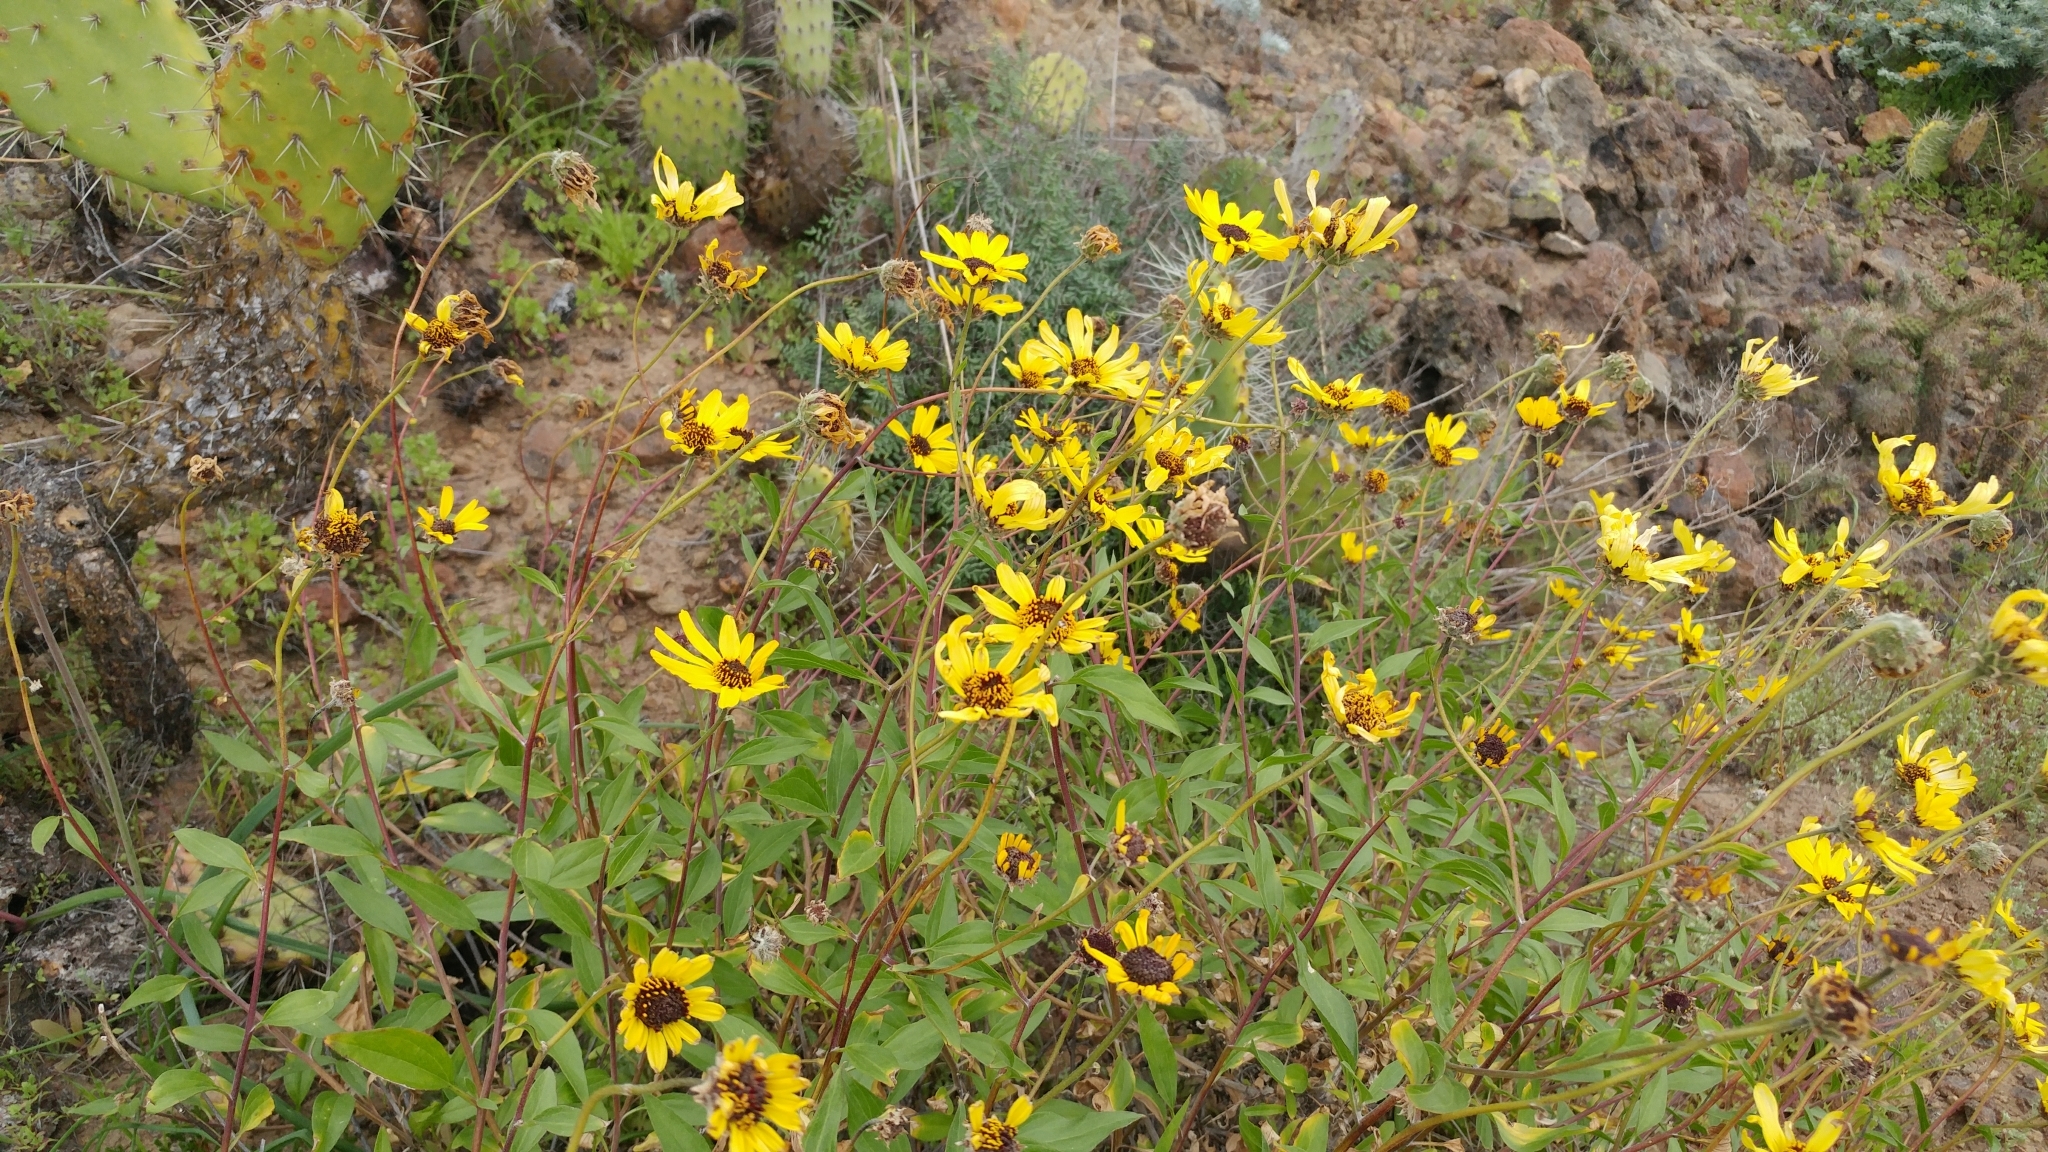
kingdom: Plantae
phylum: Tracheophyta
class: Magnoliopsida
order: Asterales
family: Asteraceae
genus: Encelia
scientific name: Encelia californica
